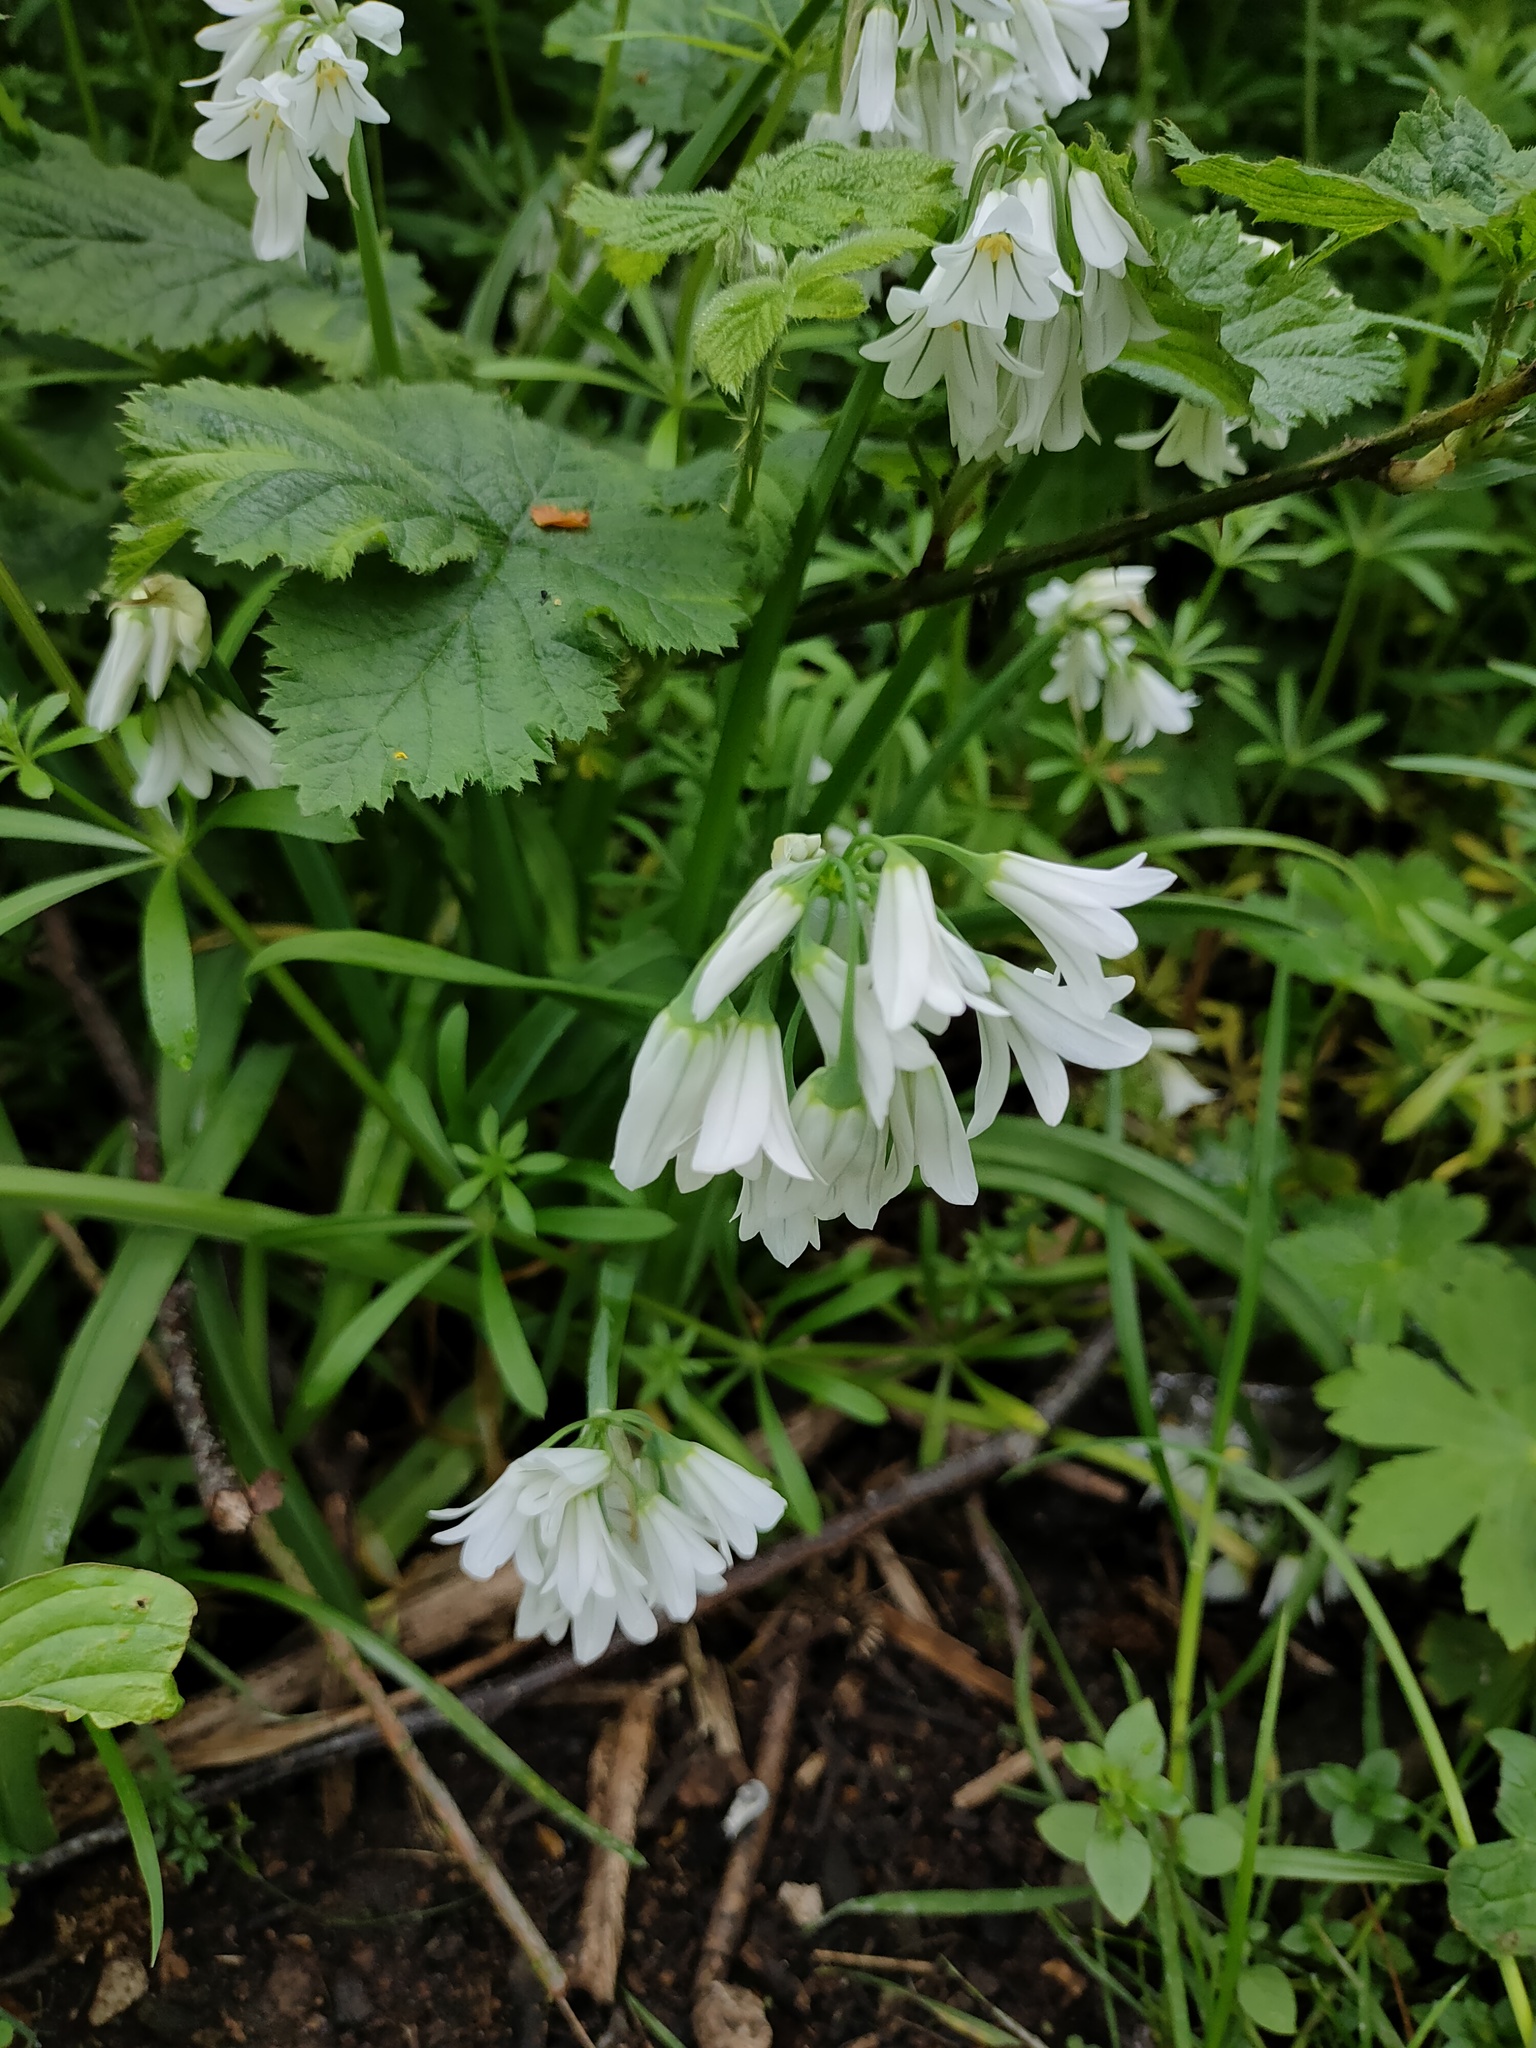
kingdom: Plantae
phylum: Tracheophyta
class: Liliopsida
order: Asparagales
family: Amaryllidaceae
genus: Allium
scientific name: Allium triquetrum
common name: Three-cornered garlic
